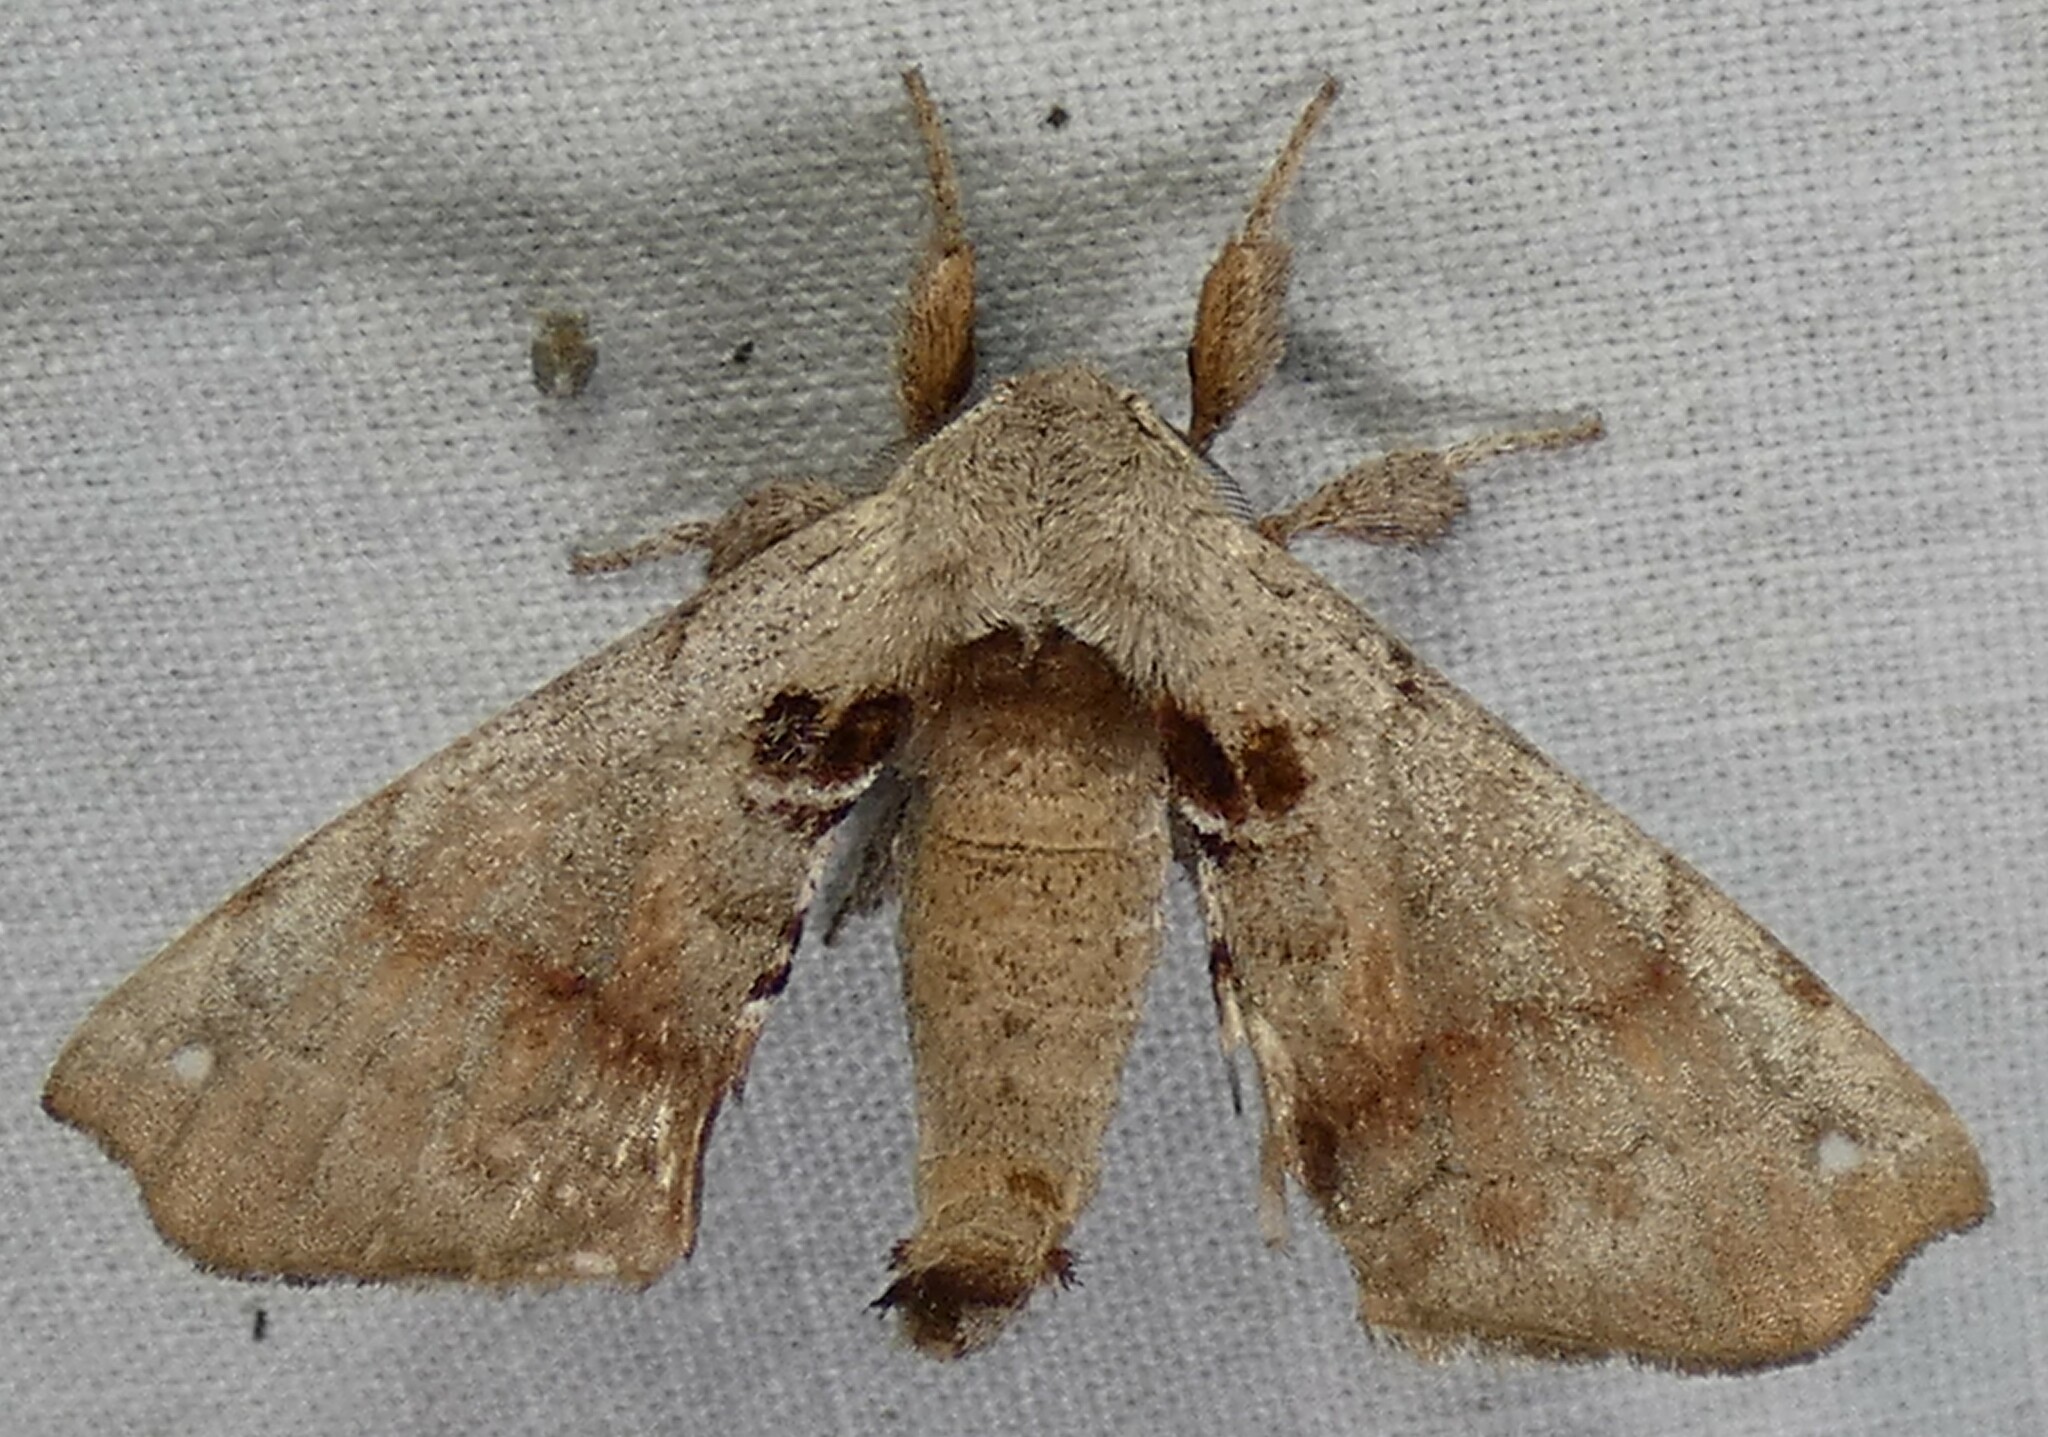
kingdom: Animalia
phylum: Arthropoda
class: Insecta
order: Lepidoptera
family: Apatelodidae
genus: Hygrochroa
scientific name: Hygrochroa Apatelodes torrefacta
